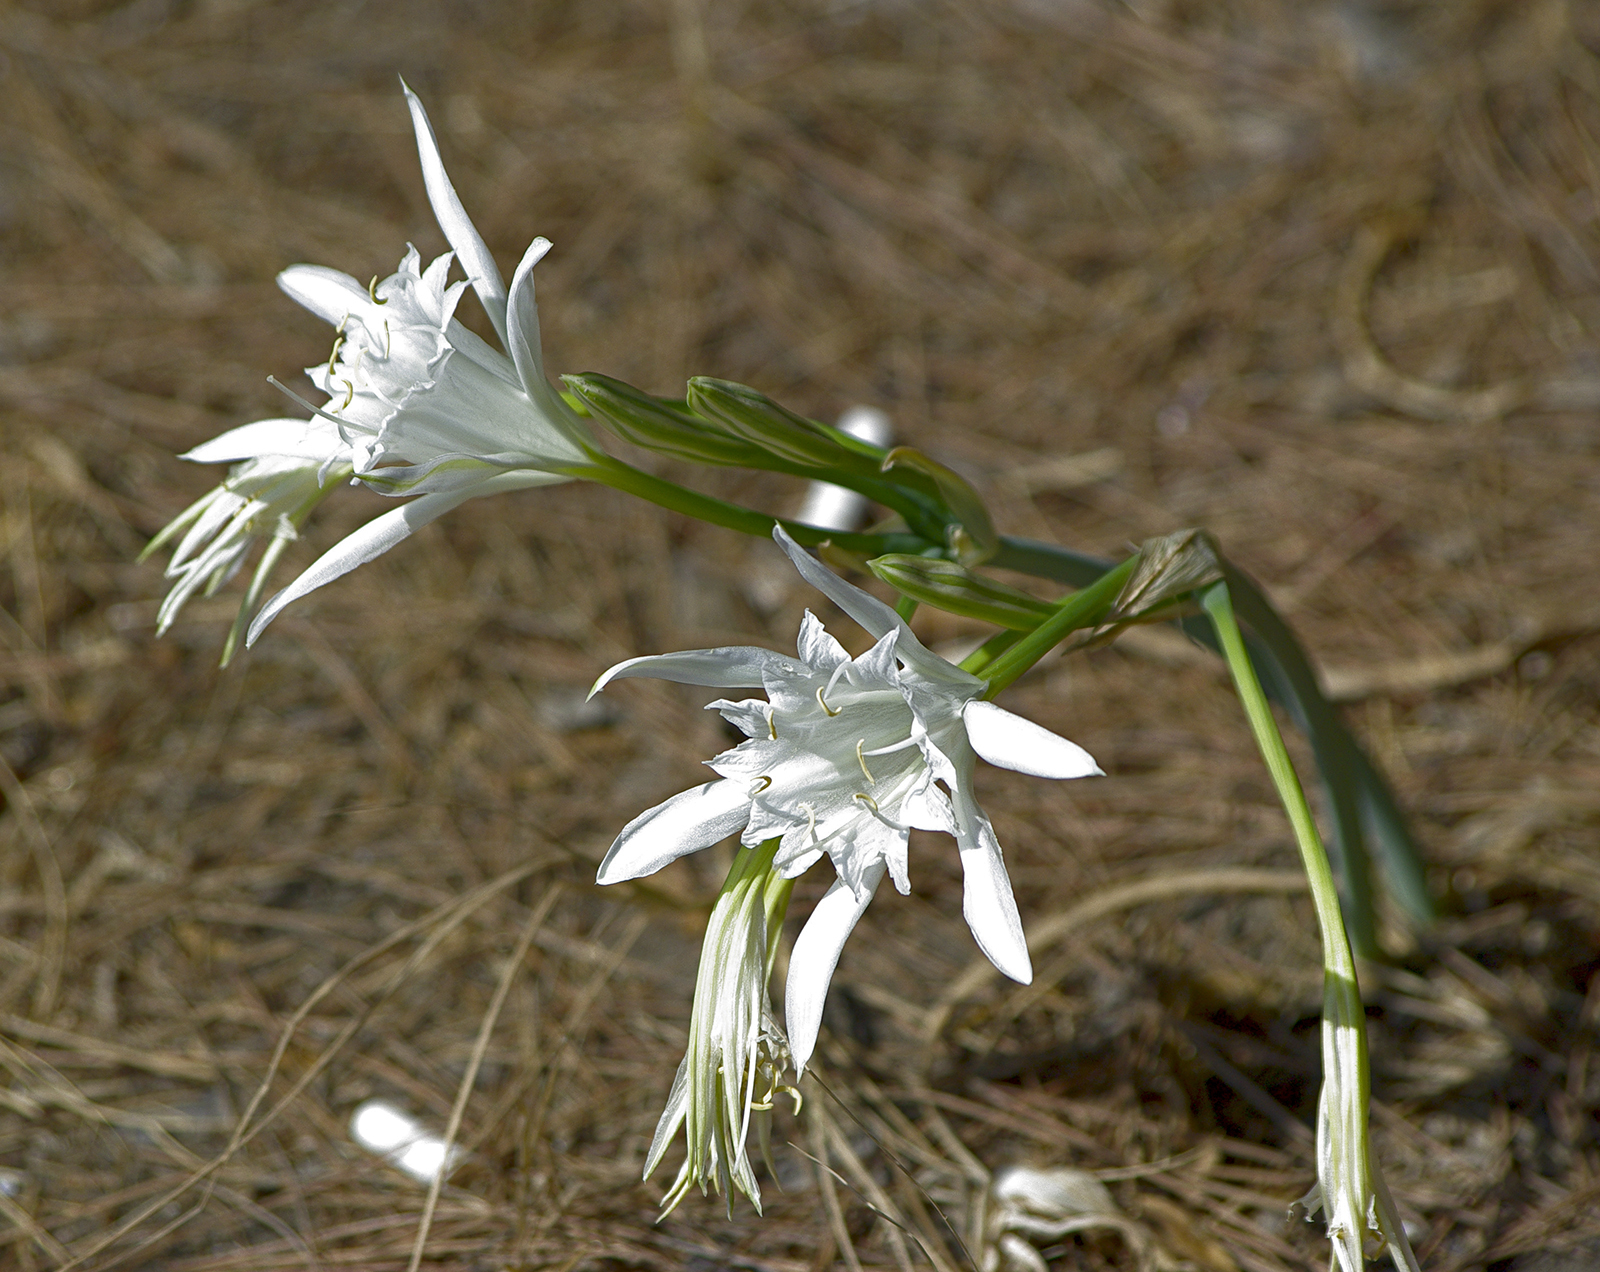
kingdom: Plantae
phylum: Tracheophyta
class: Liliopsida
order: Asparagales
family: Amaryllidaceae
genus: Pancratium
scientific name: Pancratium maritimum
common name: Sea-daffodil
